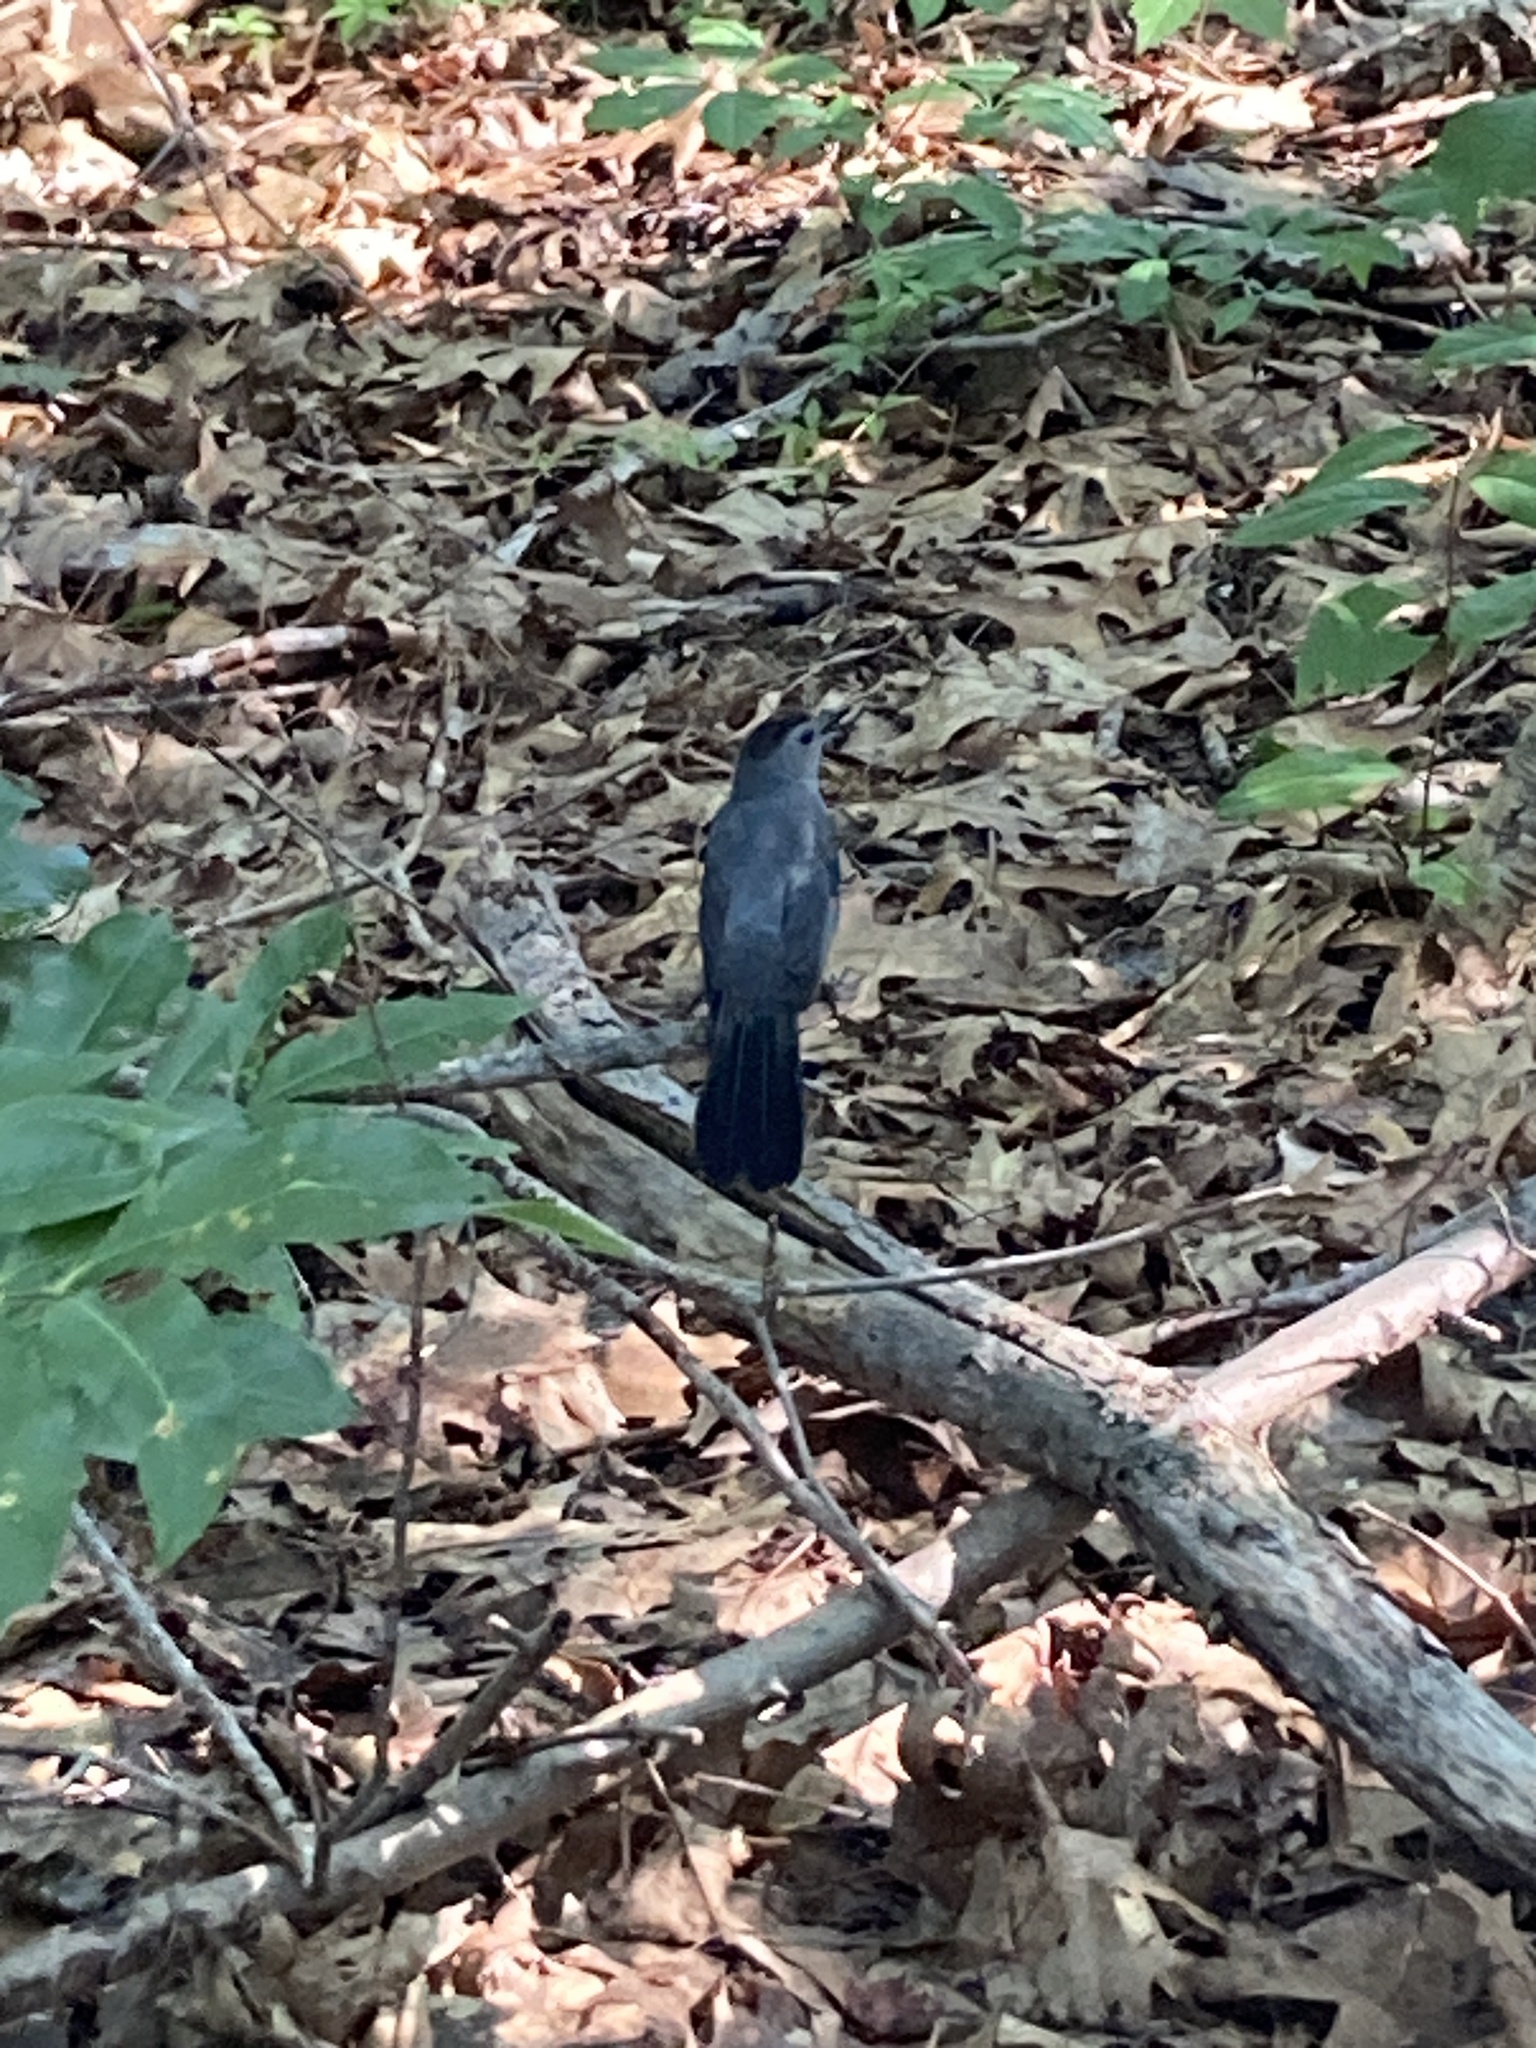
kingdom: Animalia
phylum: Chordata
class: Aves
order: Passeriformes
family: Mimidae
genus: Dumetella
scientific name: Dumetella carolinensis
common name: Gray catbird
